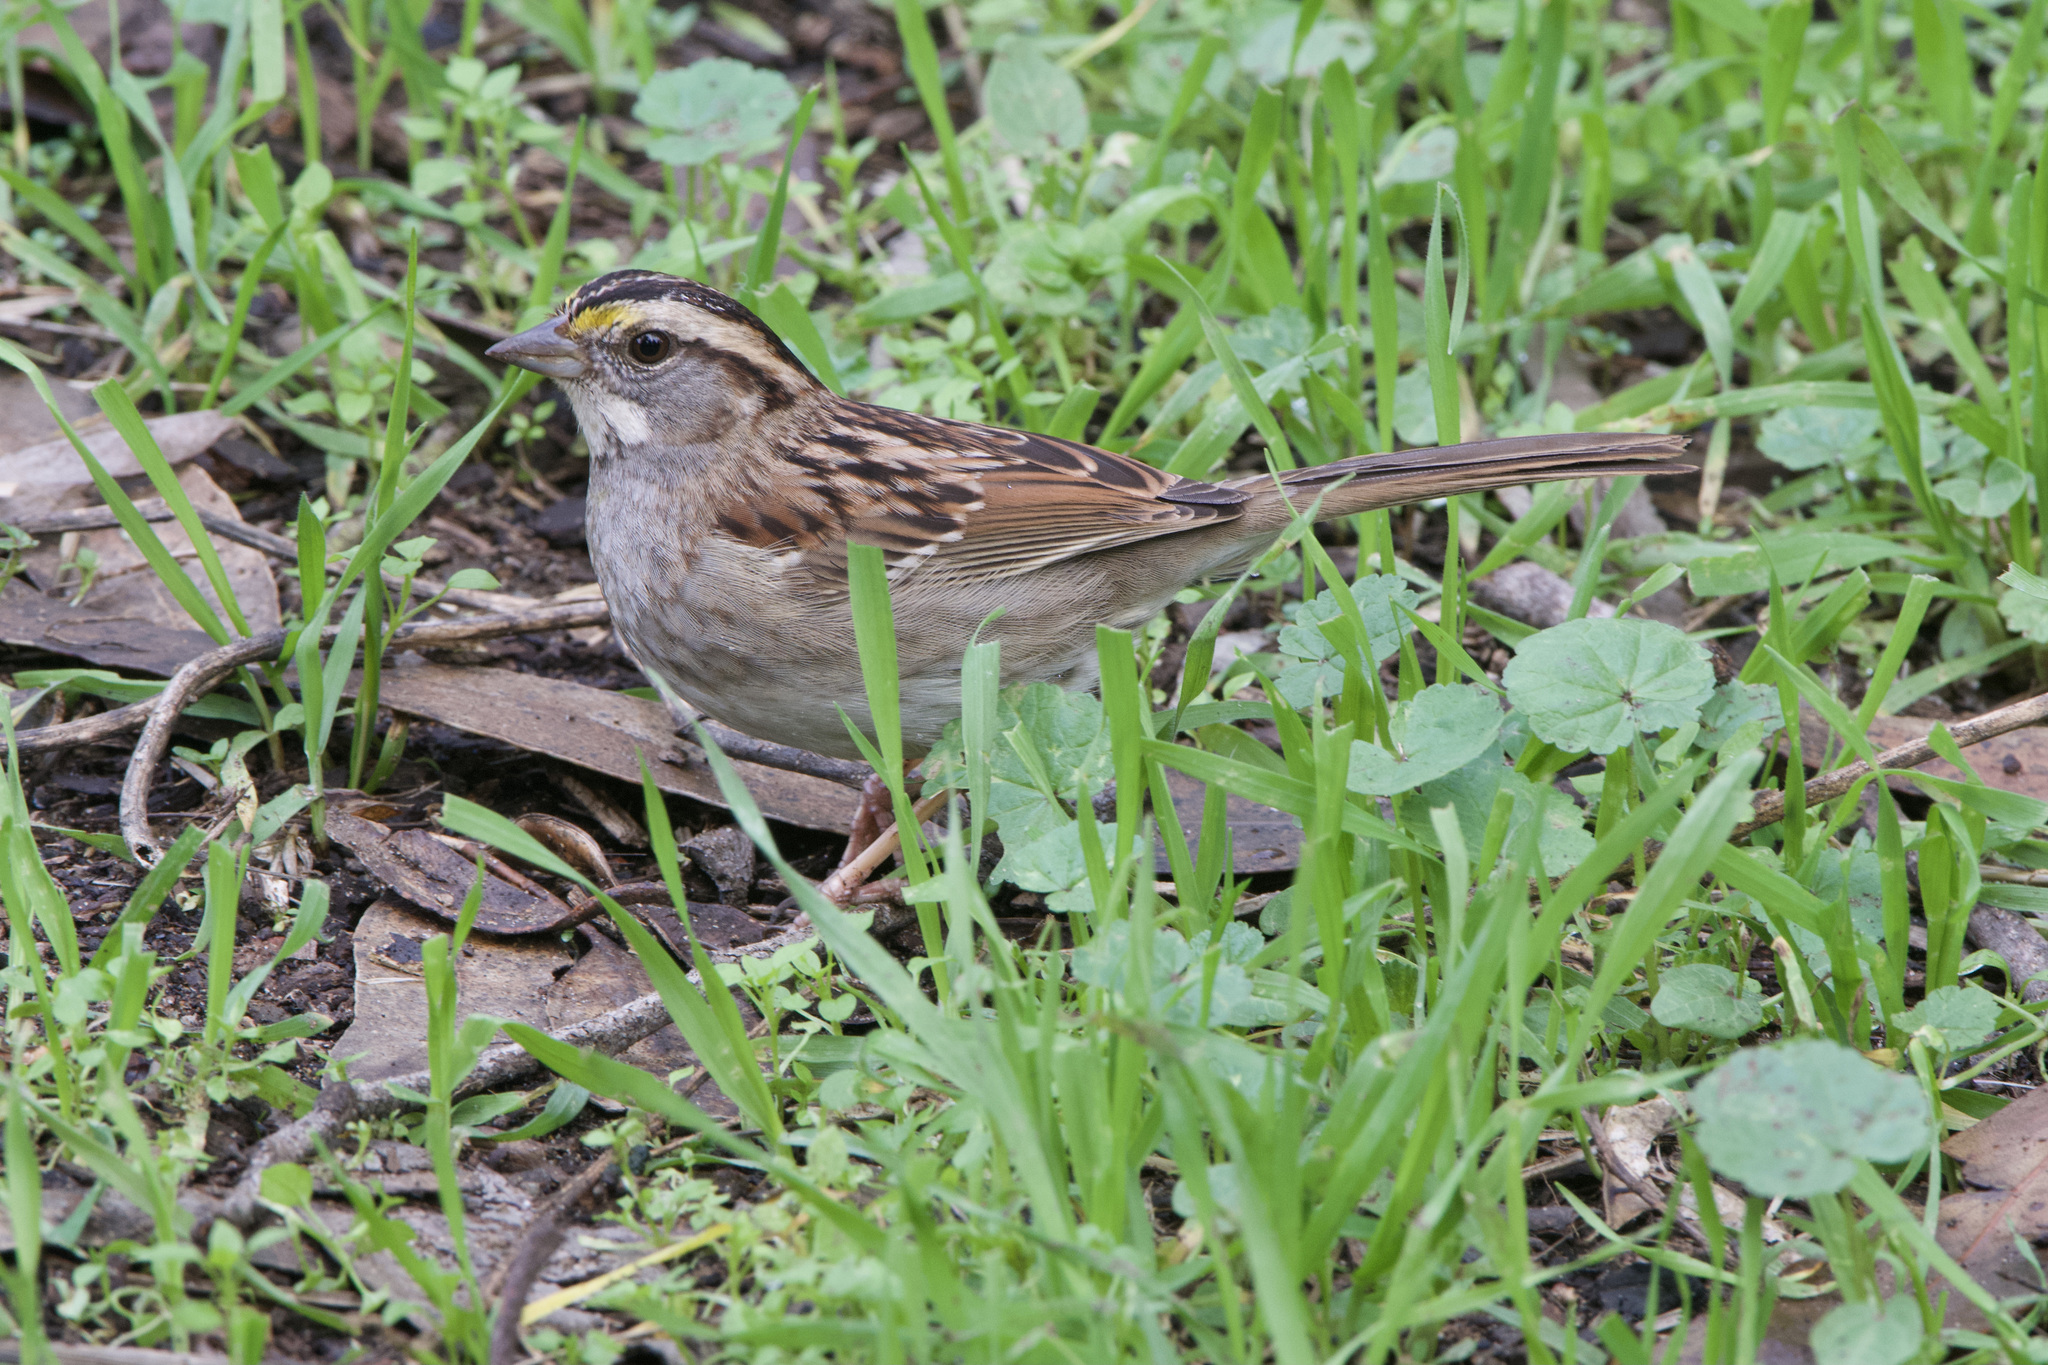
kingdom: Animalia
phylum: Chordata
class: Aves
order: Passeriformes
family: Passerellidae
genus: Zonotrichia
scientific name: Zonotrichia albicollis
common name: White-throated sparrow
